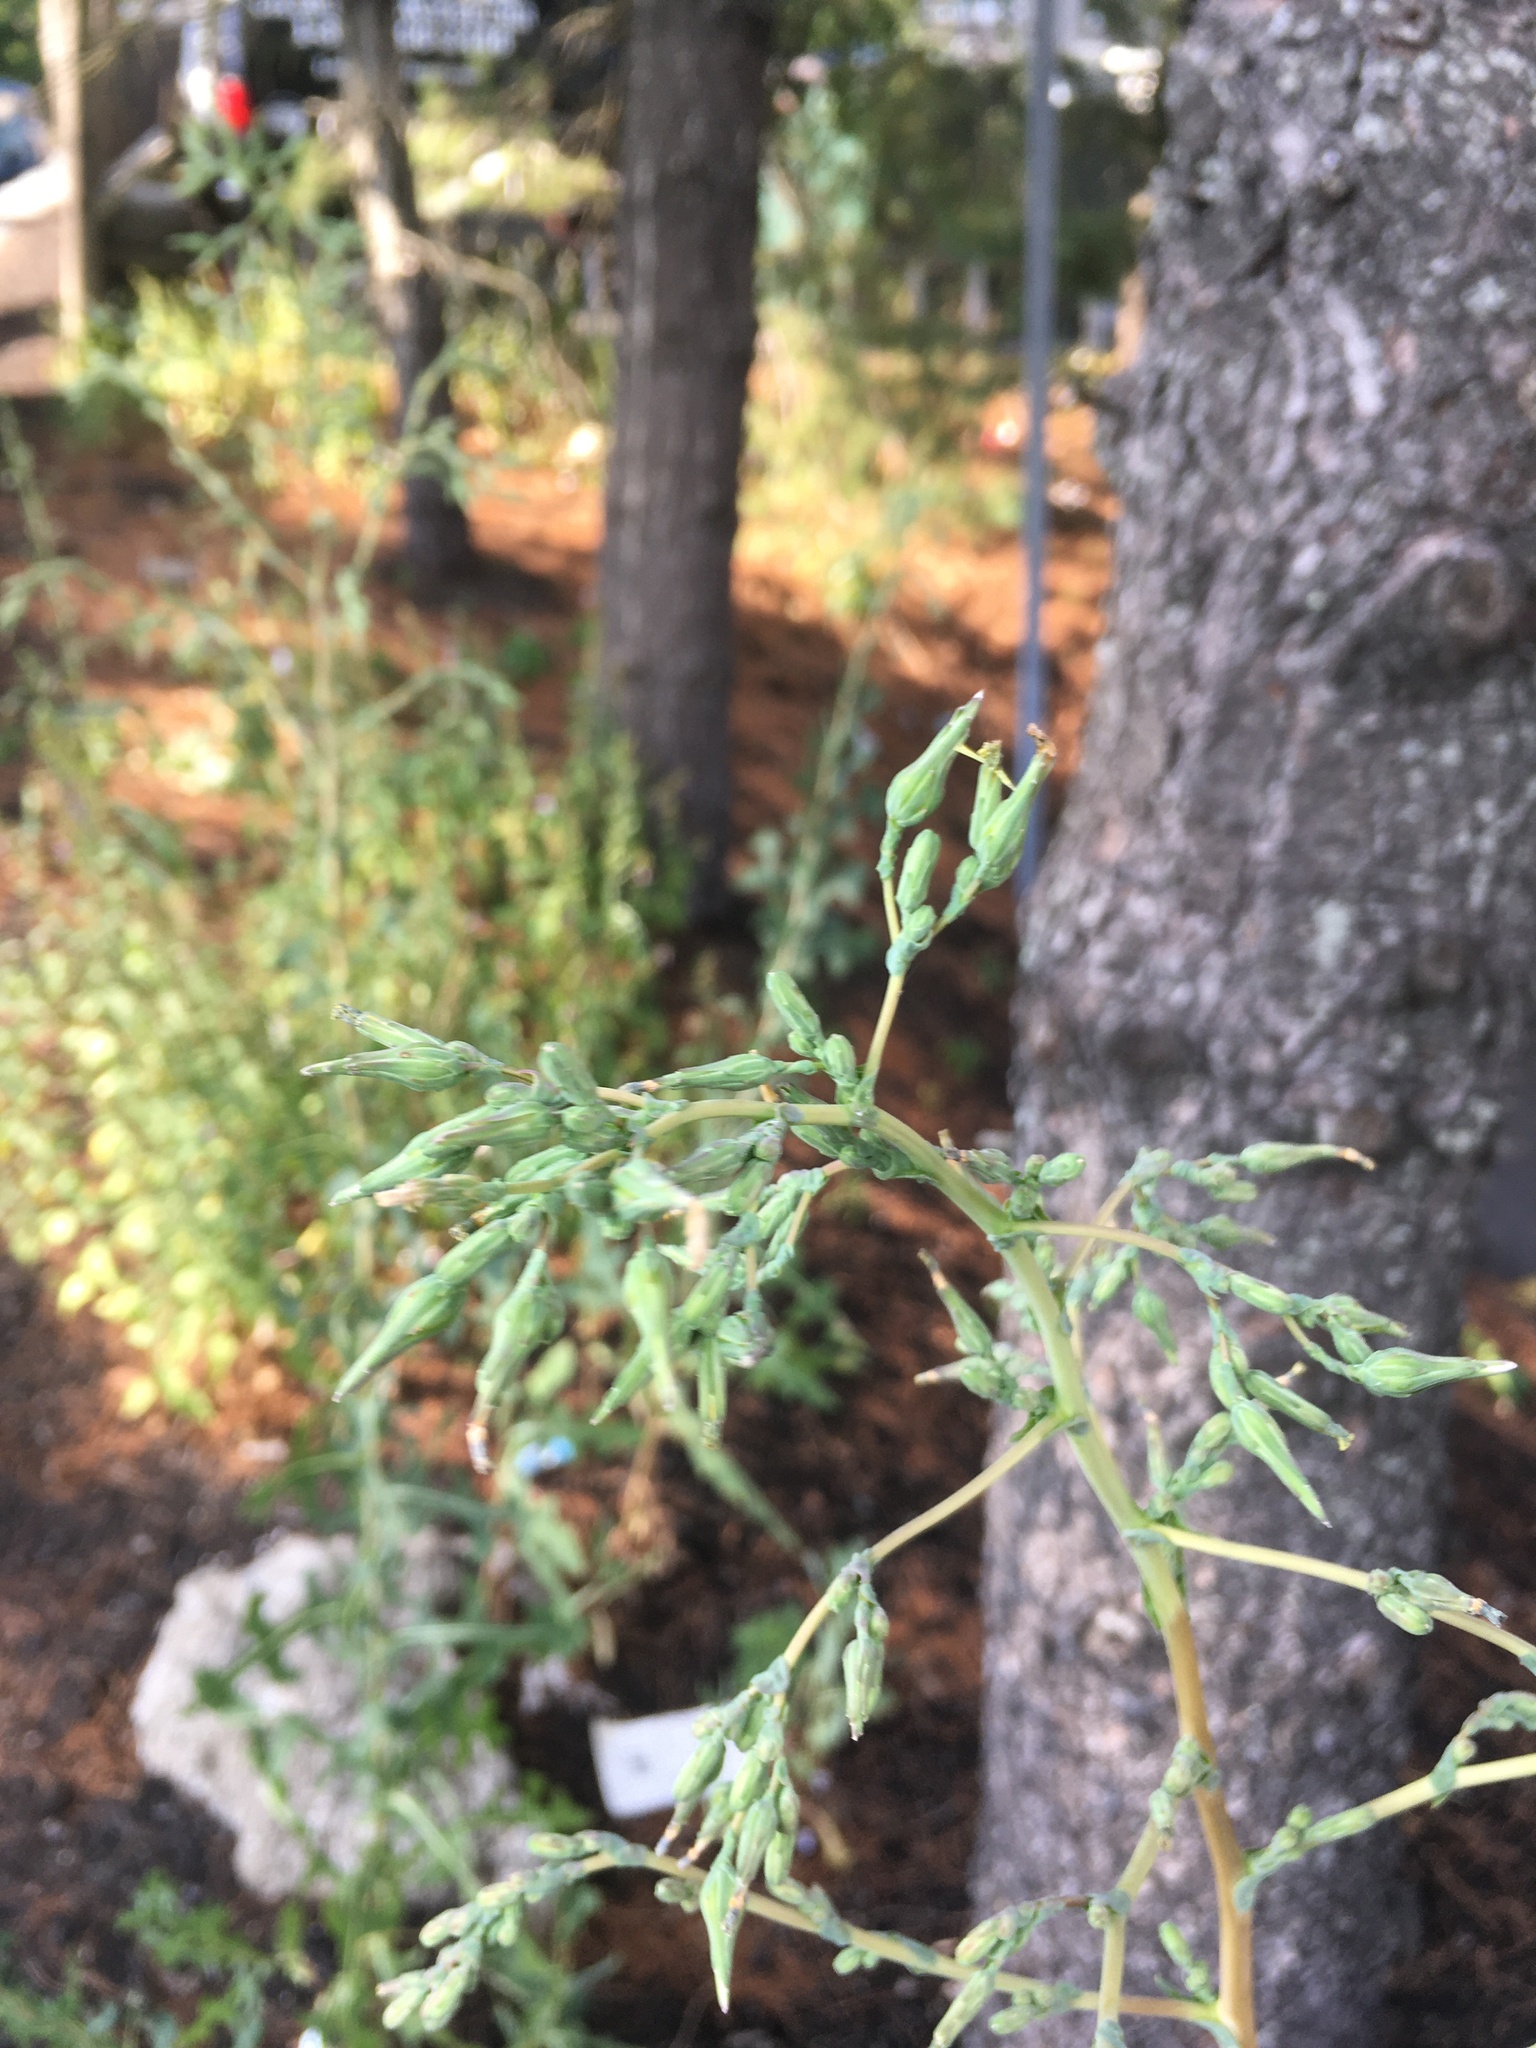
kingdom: Plantae
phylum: Tracheophyta
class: Magnoliopsida
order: Asterales
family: Asteraceae
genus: Lactuca
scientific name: Lactuca serriola
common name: Prickly lettuce
